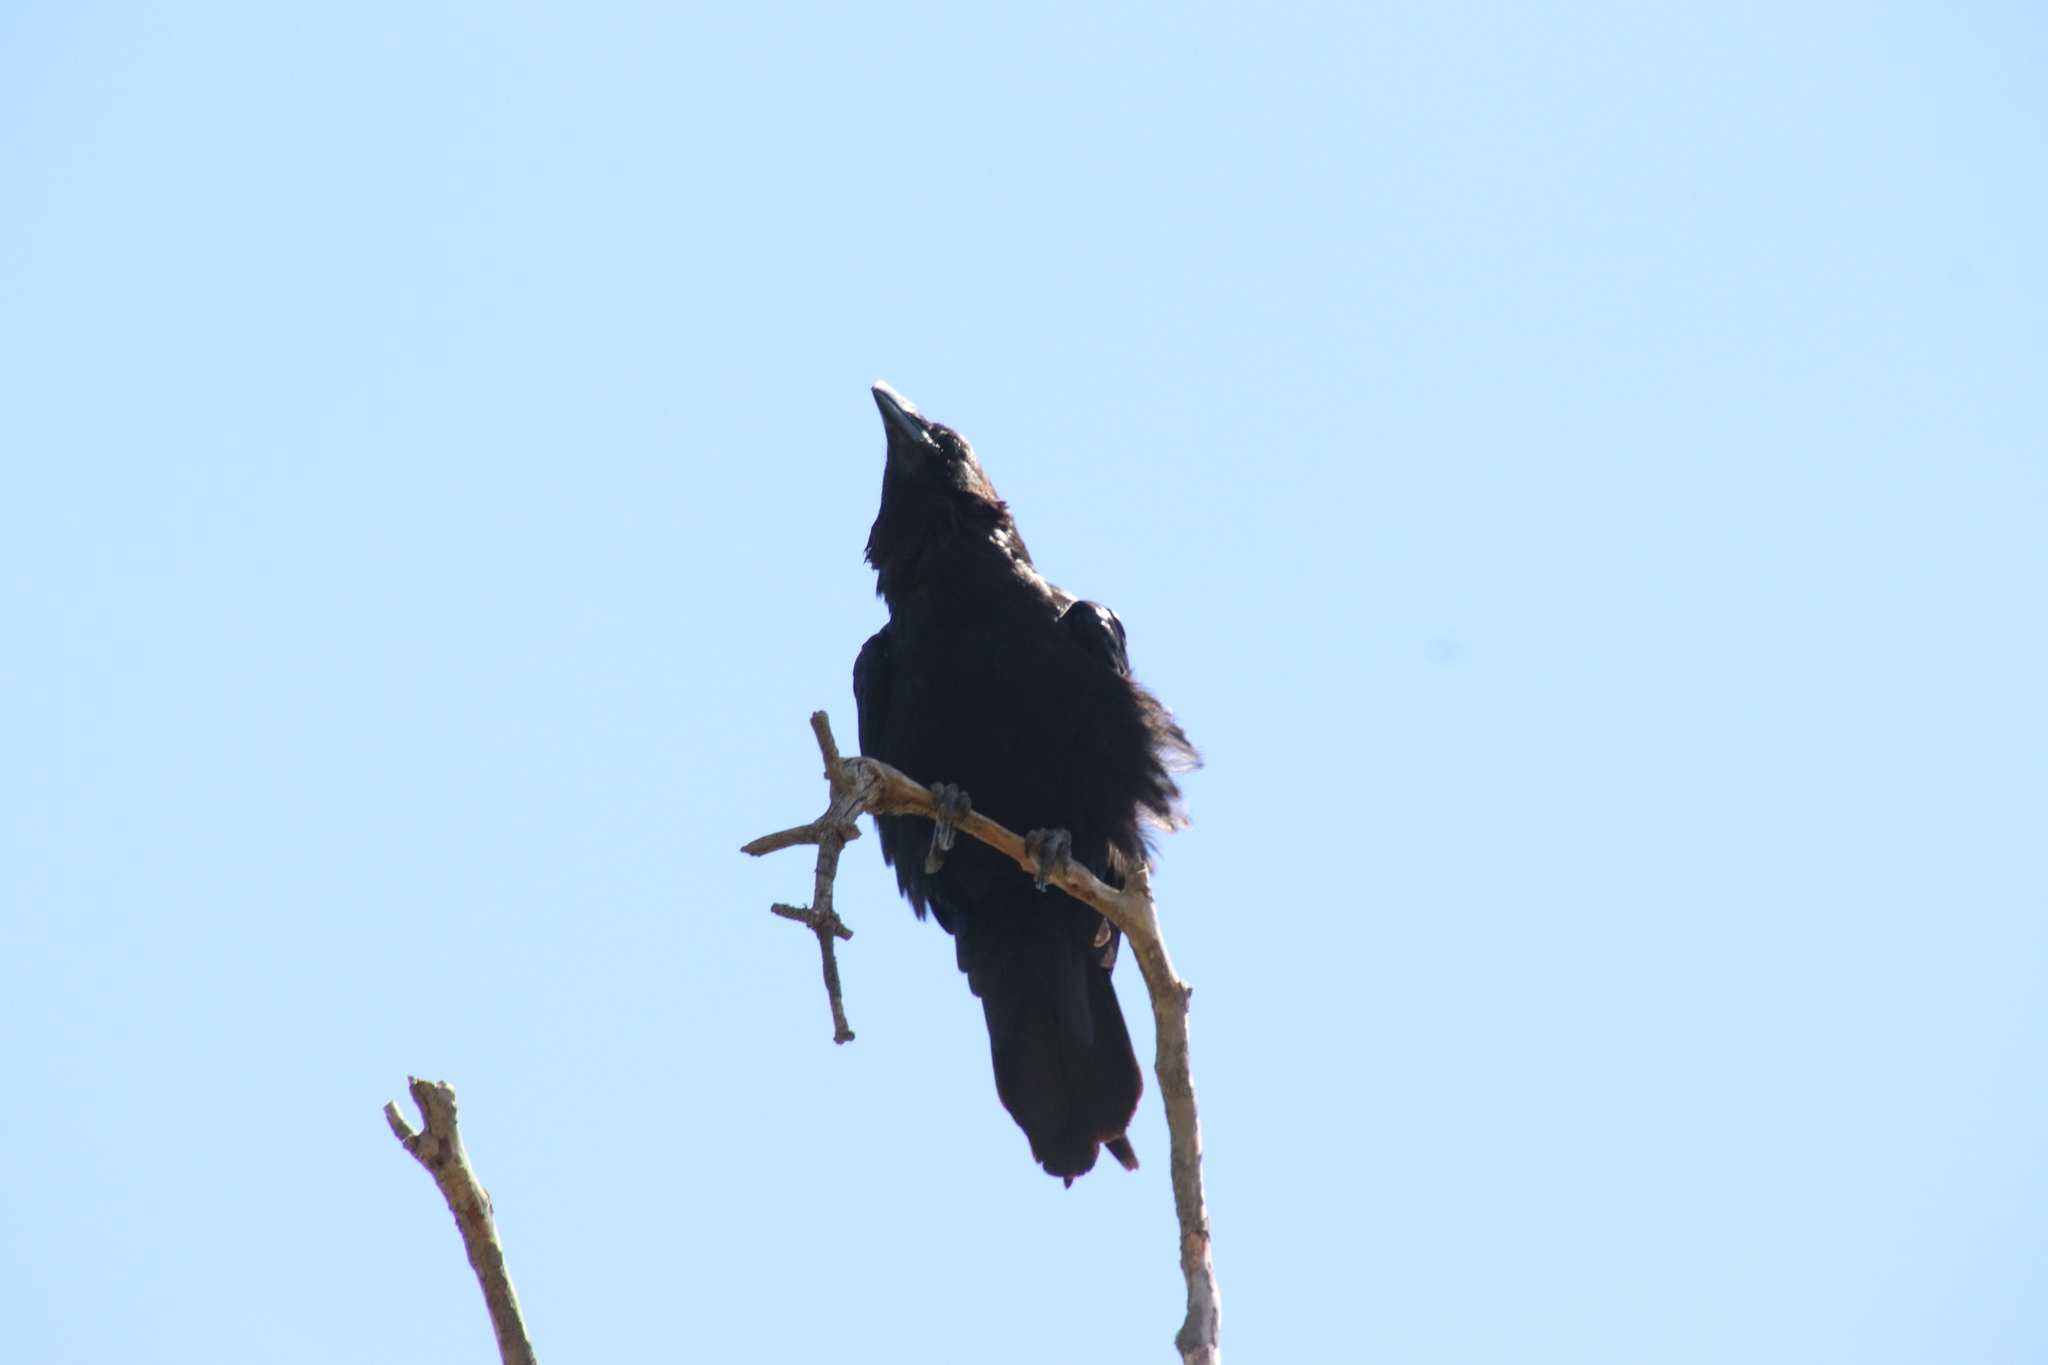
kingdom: Animalia
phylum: Chordata
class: Aves
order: Passeriformes
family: Corvidae
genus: Corvus
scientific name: Corvus corax
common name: Common raven
